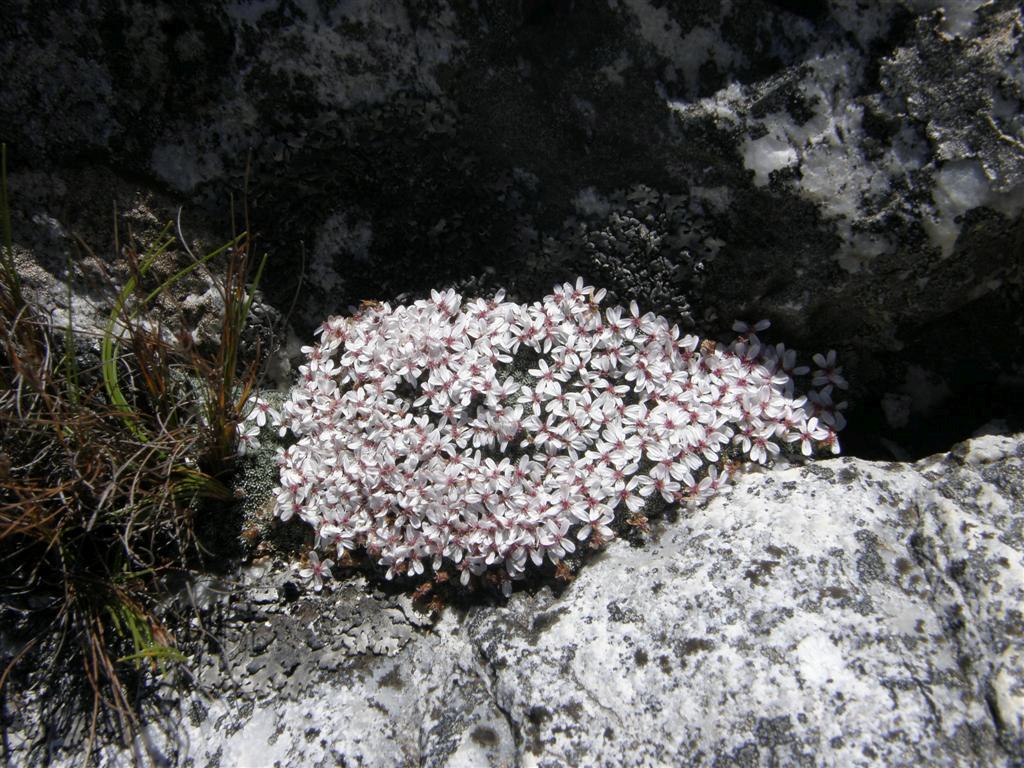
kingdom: Plantae
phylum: Tracheophyta
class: Magnoliopsida
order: Asterales
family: Asteraceae
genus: Muscosomorphe
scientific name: Muscosomorphe aretioides
